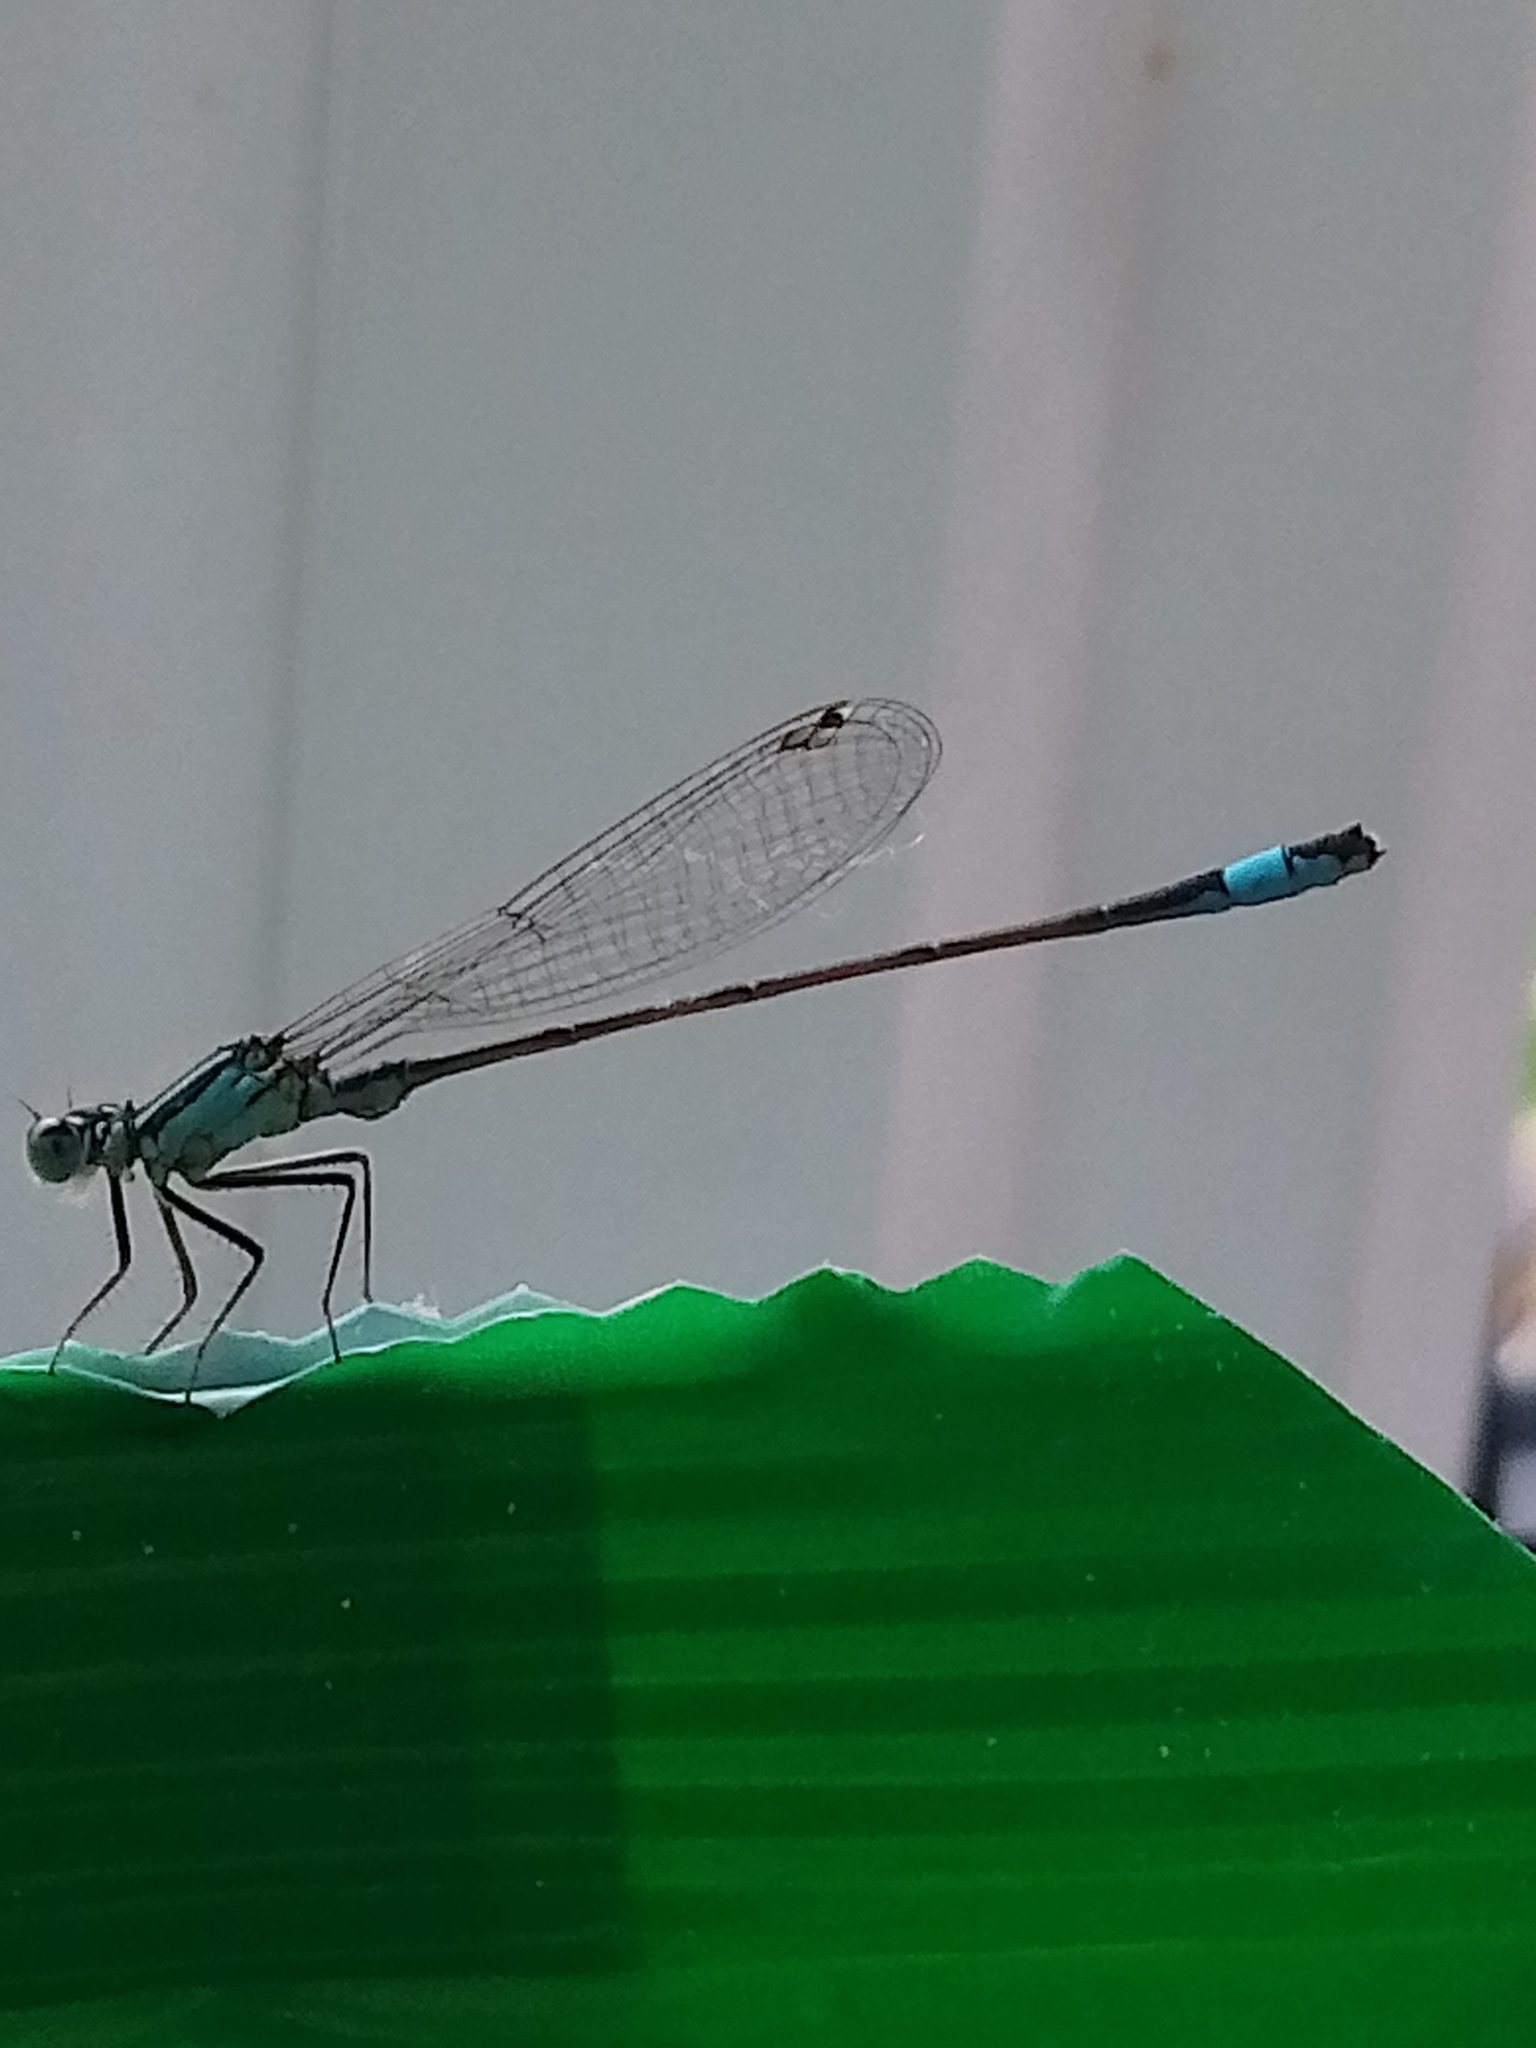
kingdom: Animalia
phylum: Arthropoda
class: Insecta
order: Odonata
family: Coenagrionidae
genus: Ischnura
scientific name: Ischnura elegans
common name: Blue-tailed damselfly
